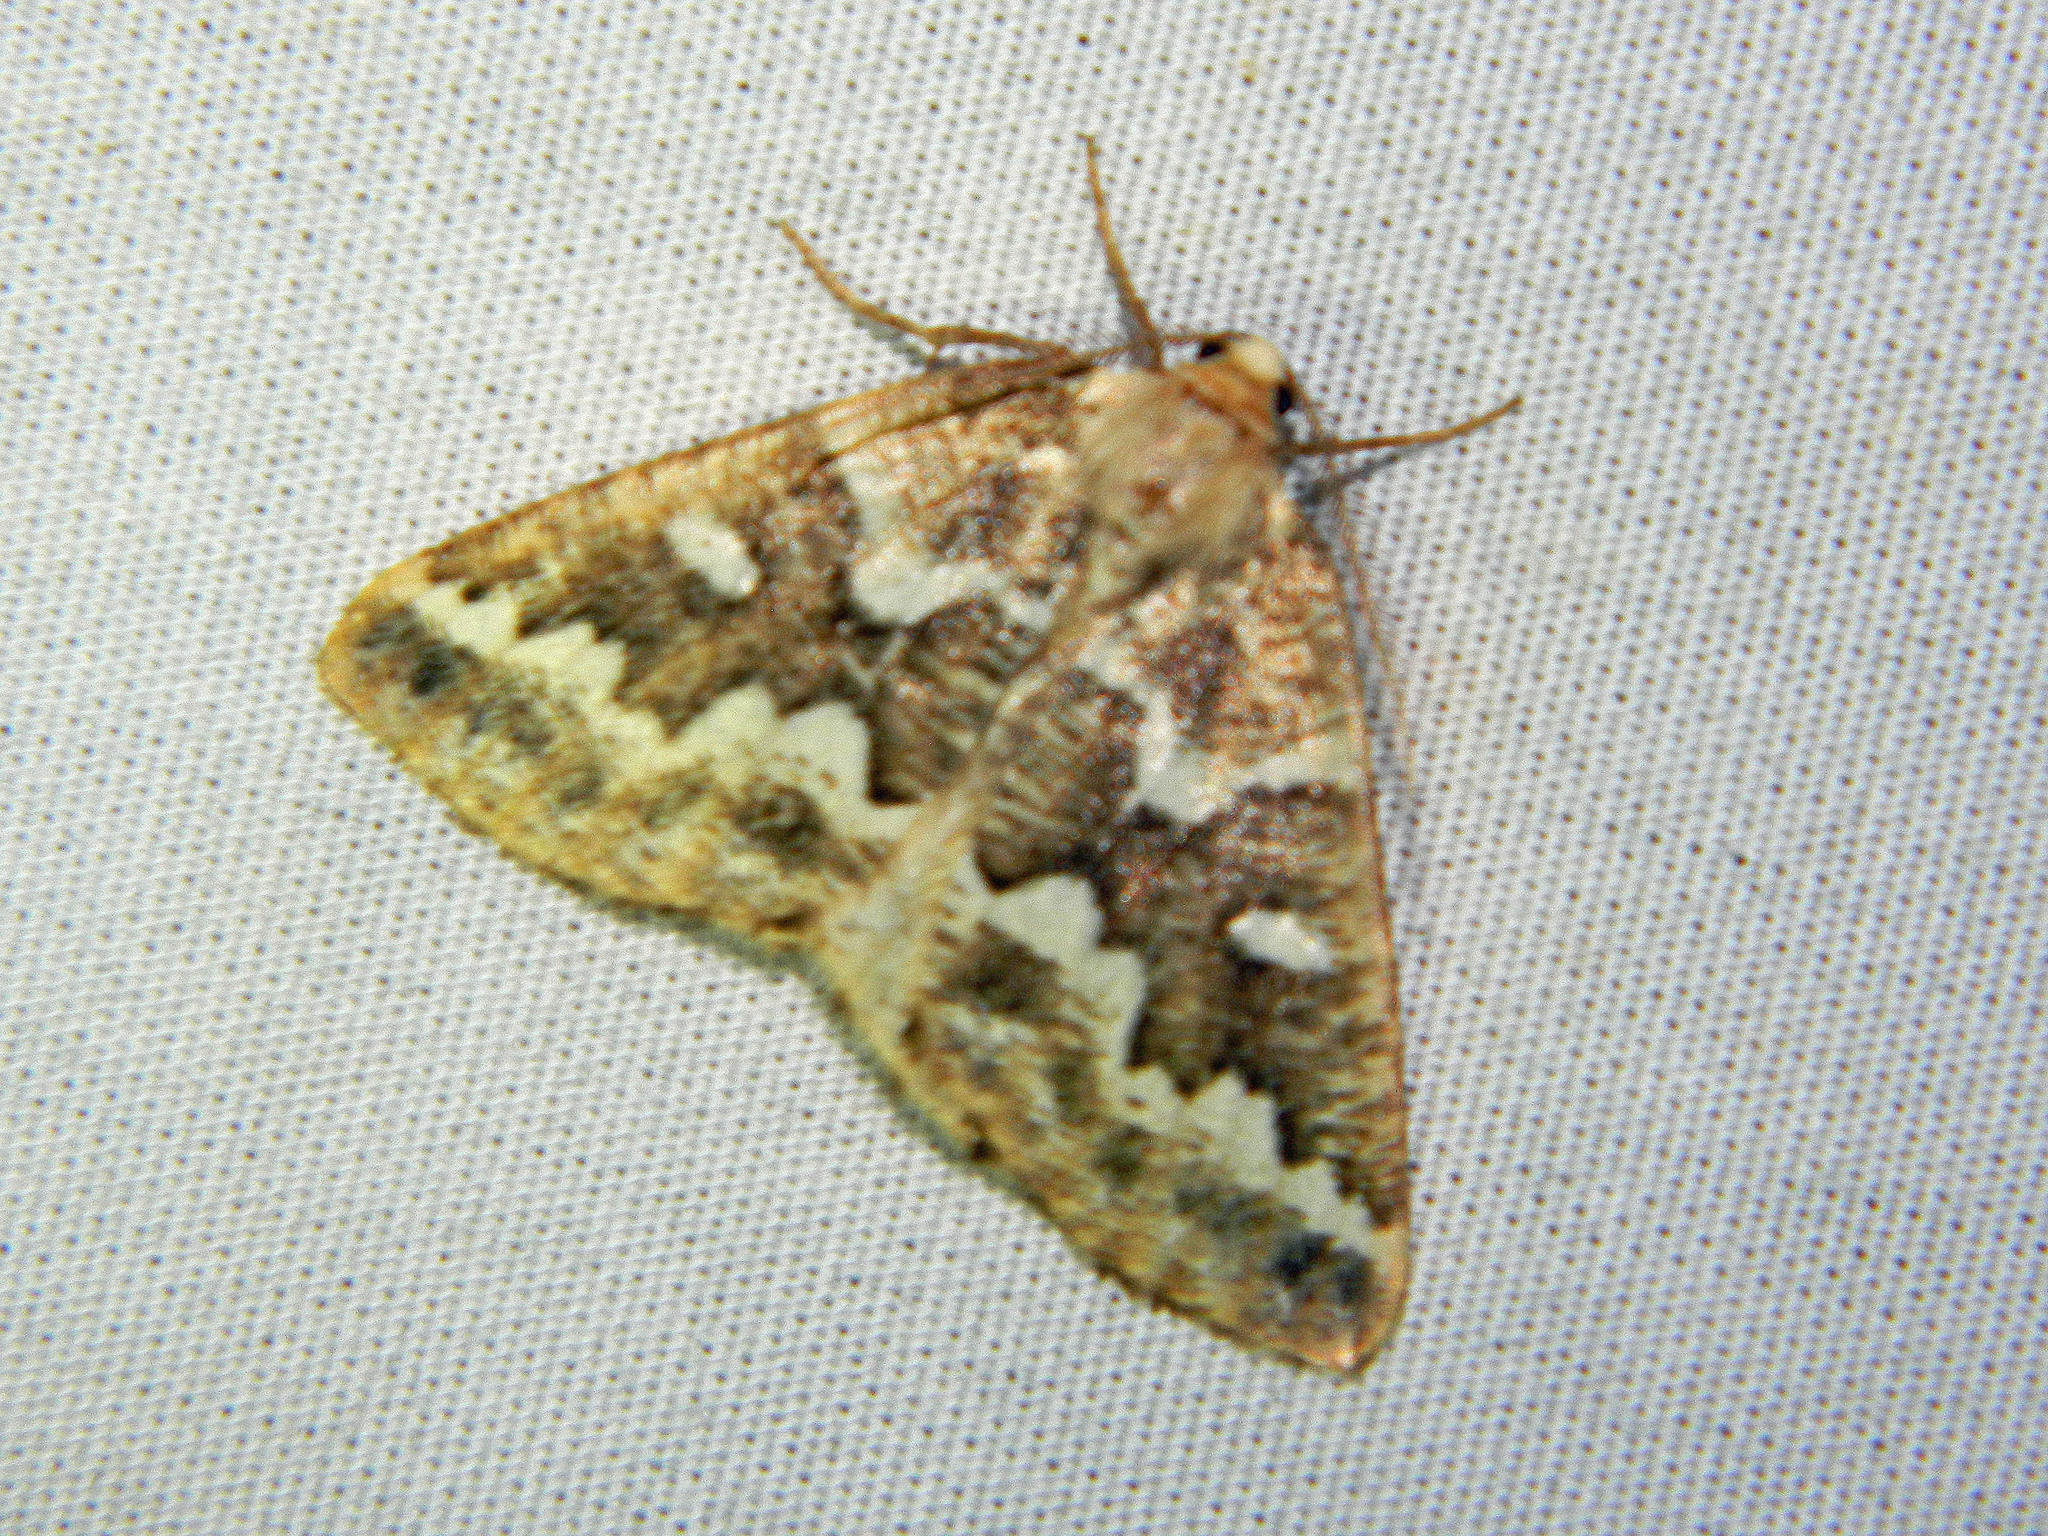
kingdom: Animalia
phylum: Arthropoda
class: Insecta
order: Lepidoptera
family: Geometridae
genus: Caripeta
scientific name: Caripeta divisata
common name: Gray spruce looper
